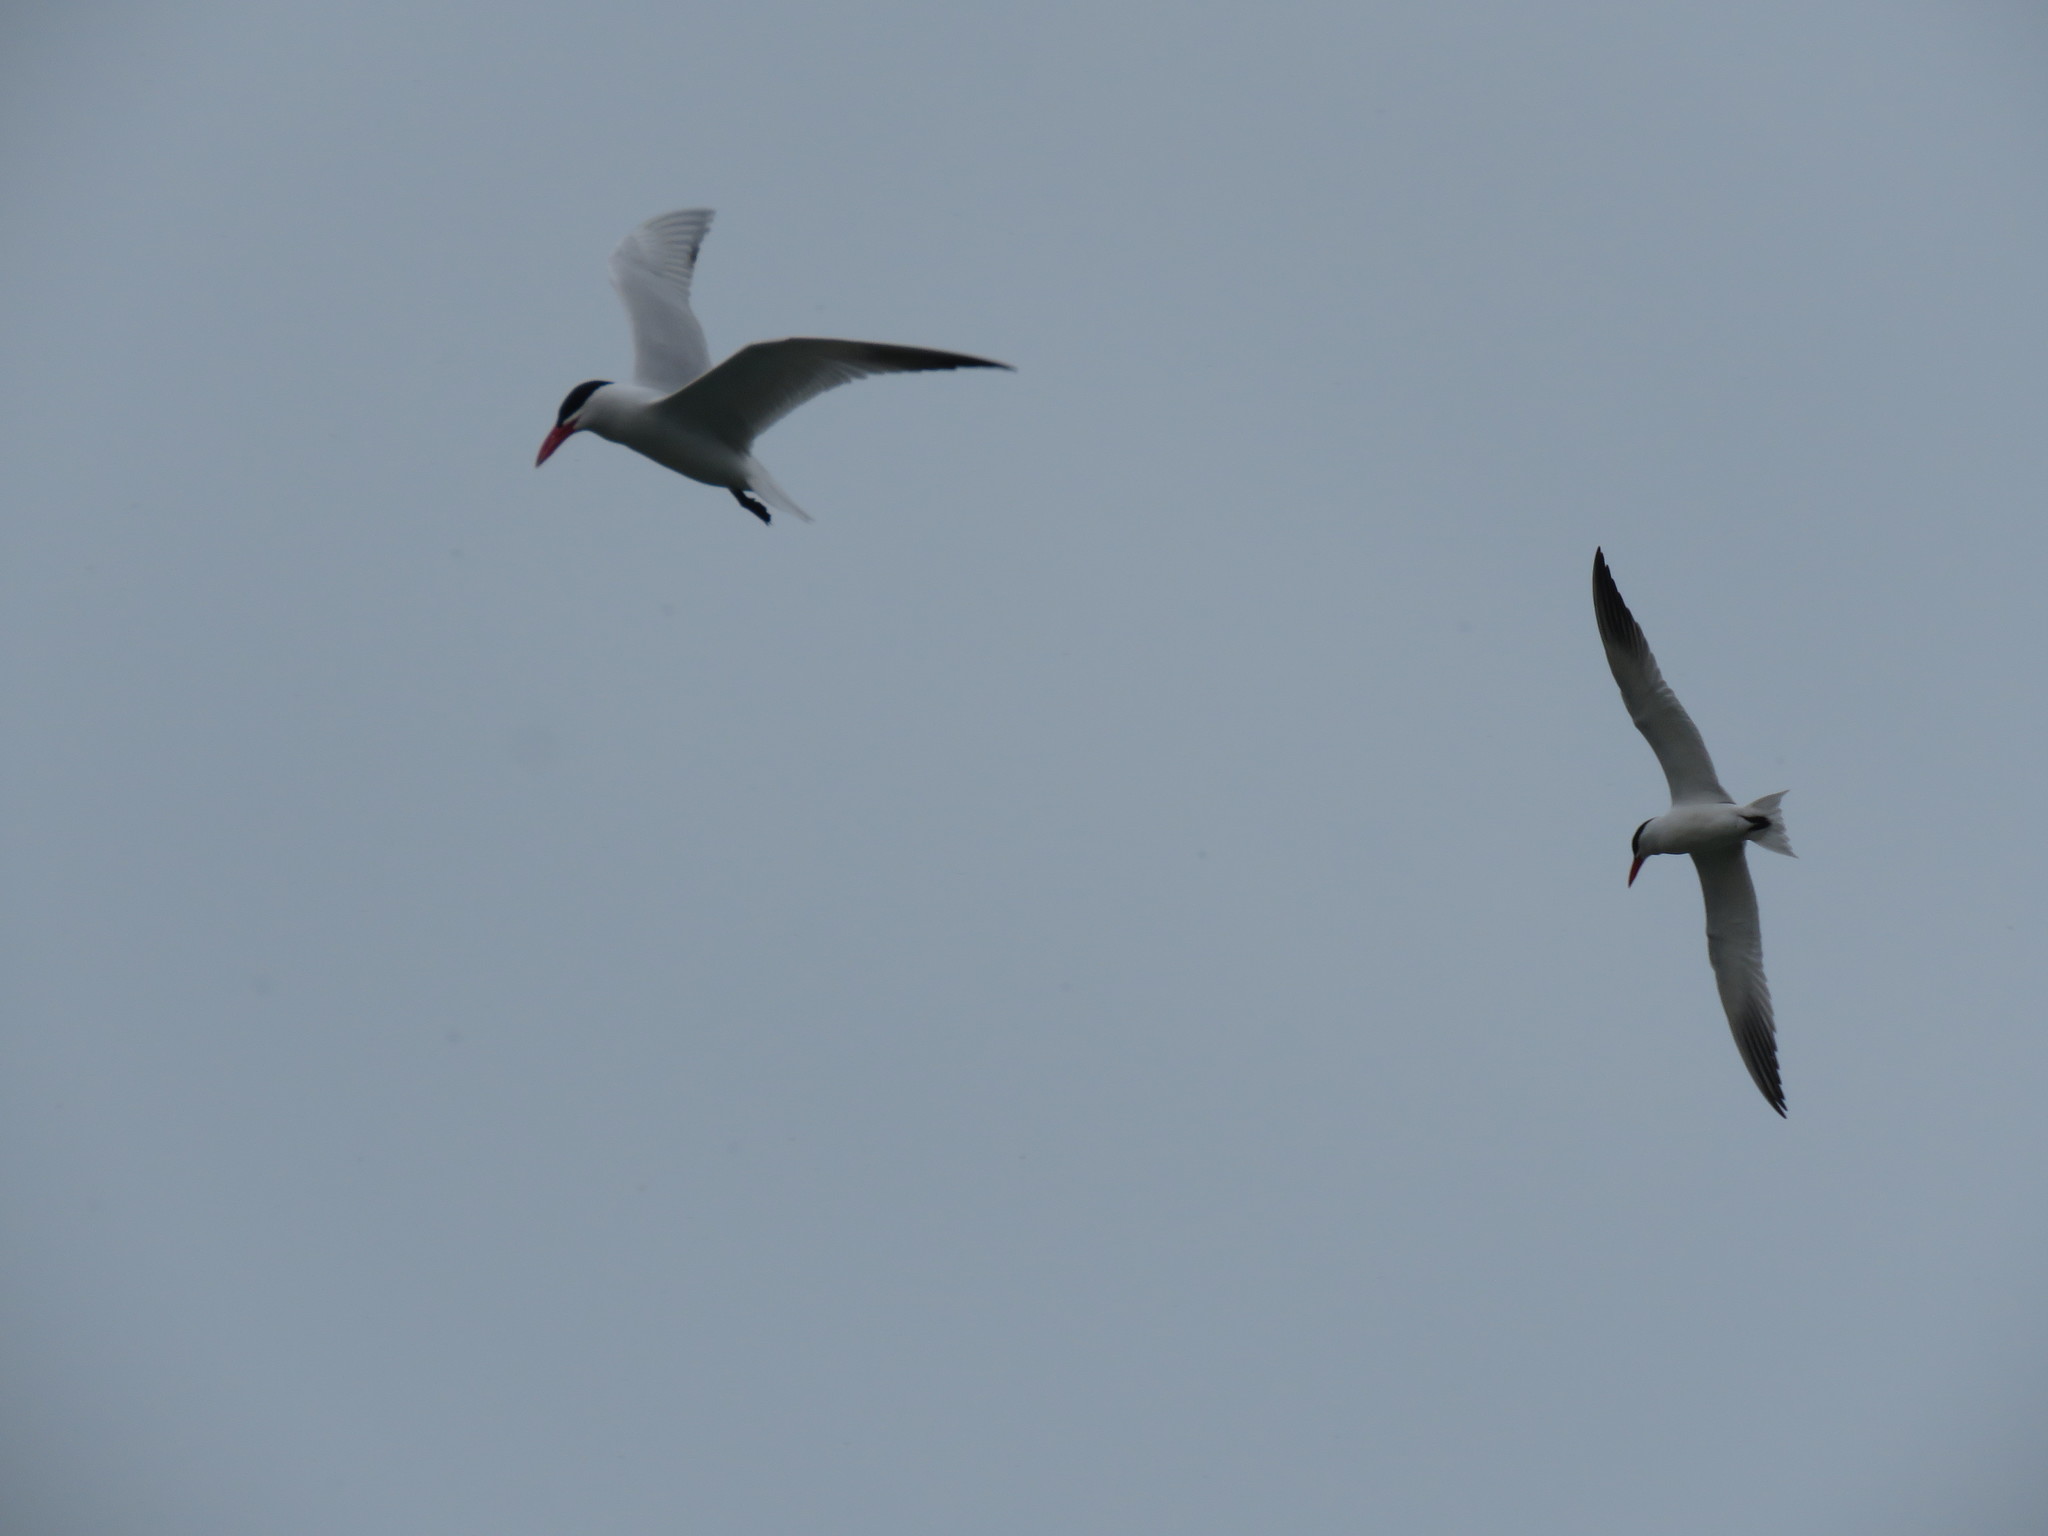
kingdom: Animalia
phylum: Chordata
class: Aves
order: Charadriiformes
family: Laridae
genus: Hydroprogne
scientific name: Hydroprogne caspia
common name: Caspian tern
